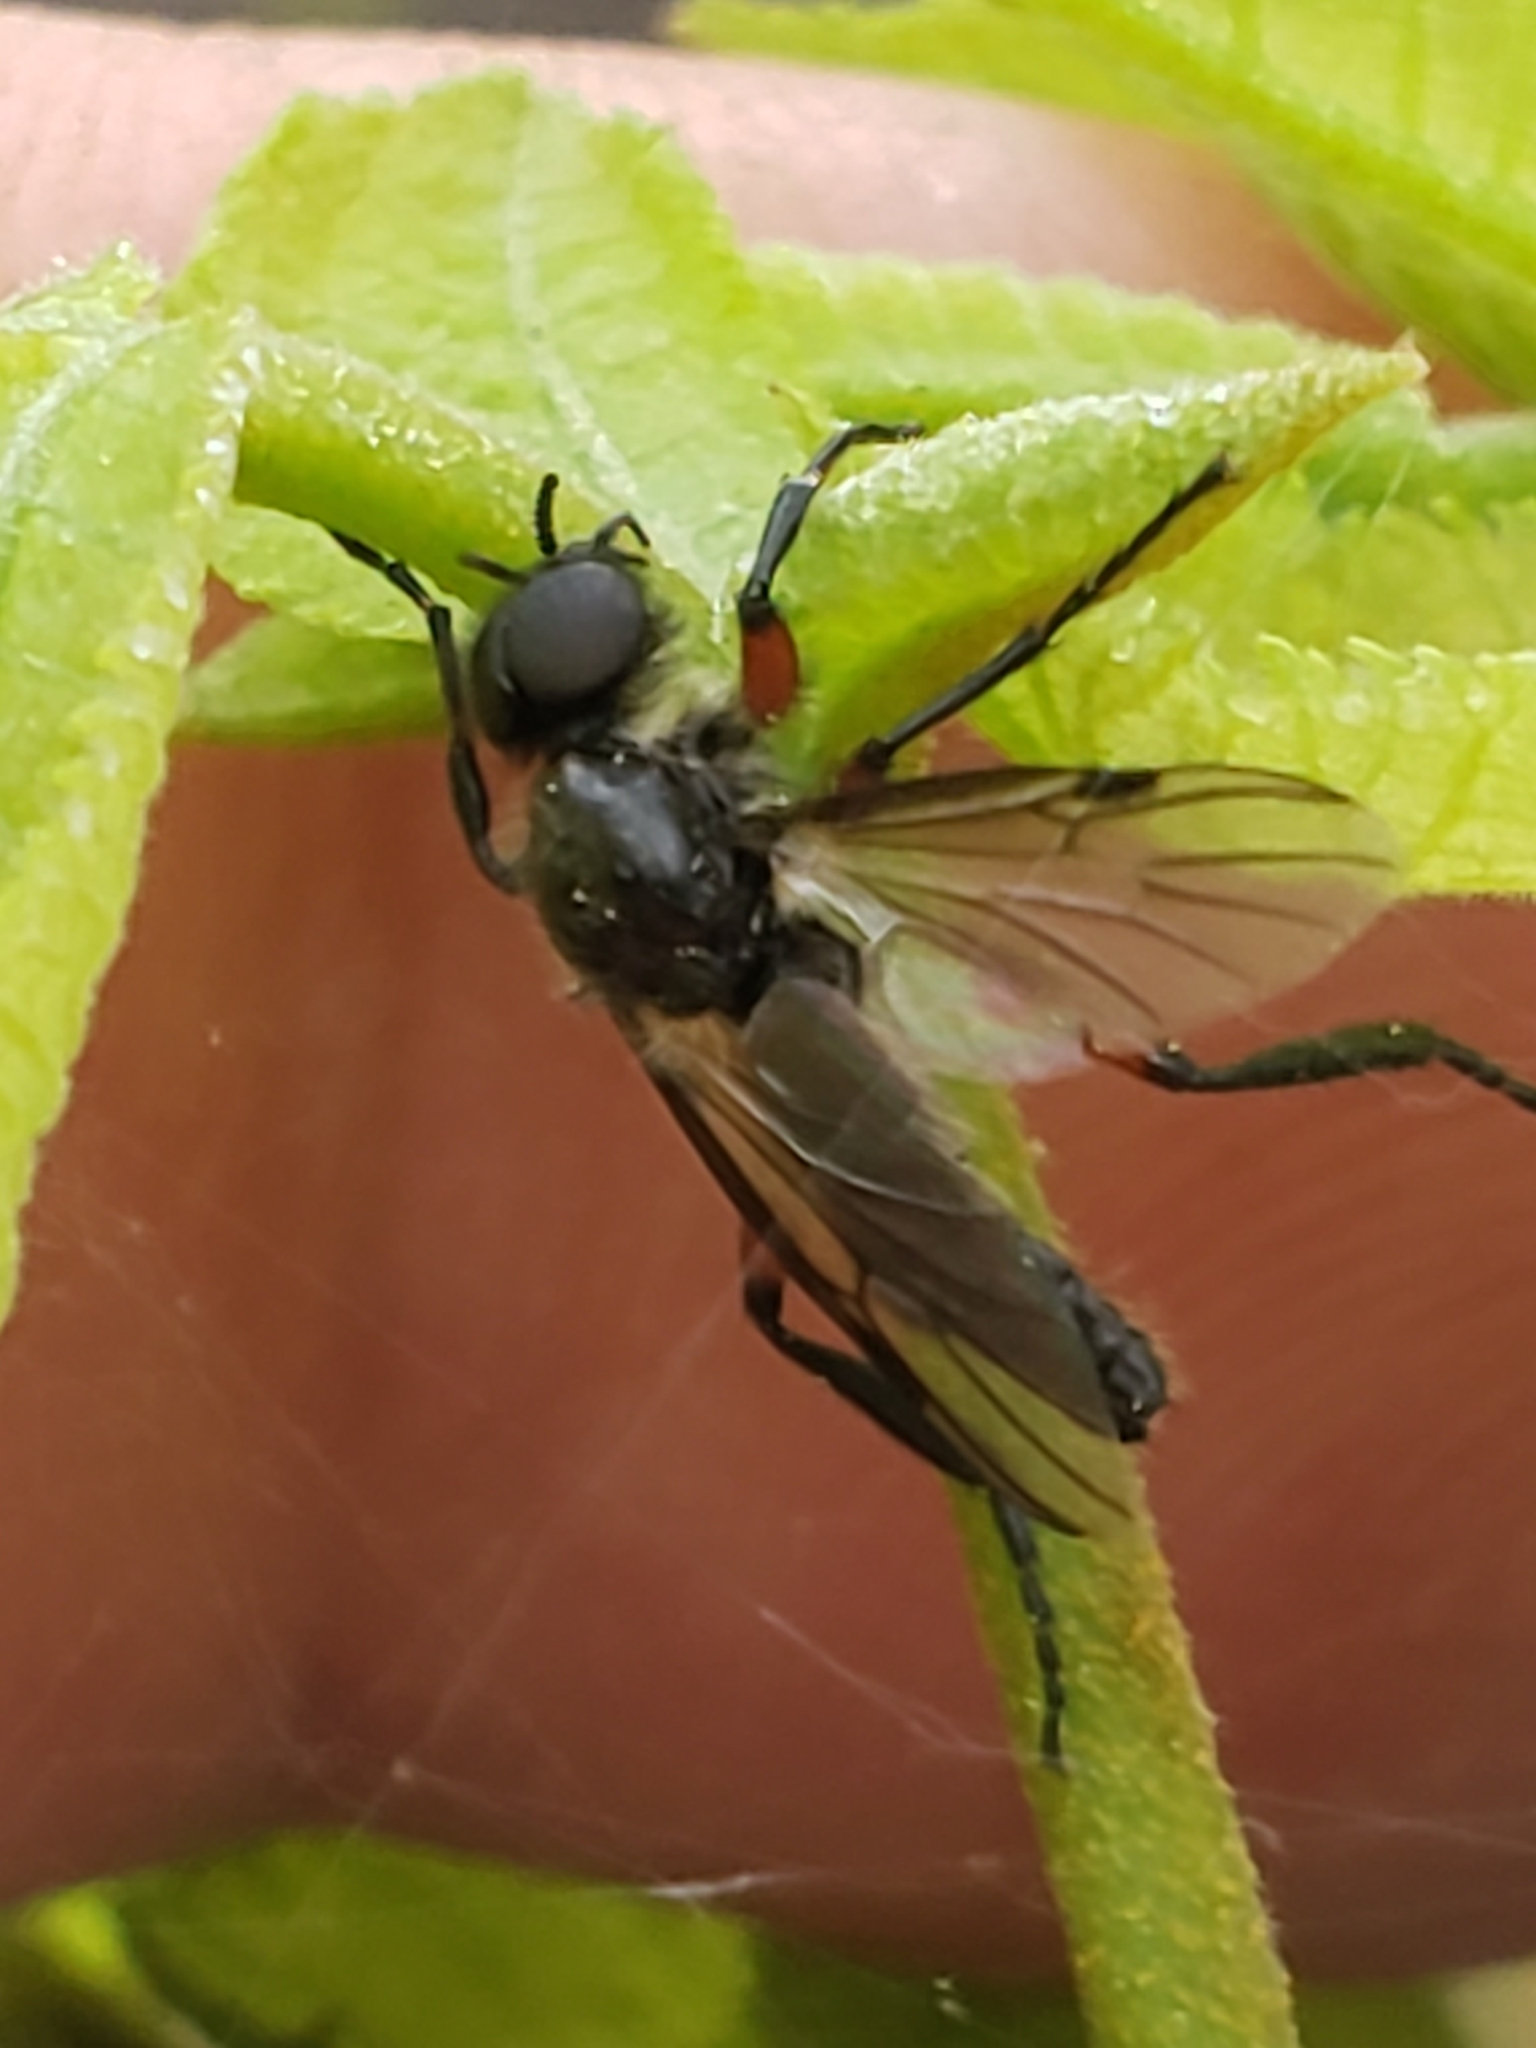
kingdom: Animalia
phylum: Arthropoda
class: Insecta
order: Diptera
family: Bibionidae
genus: Bibio
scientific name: Bibio femoratus
